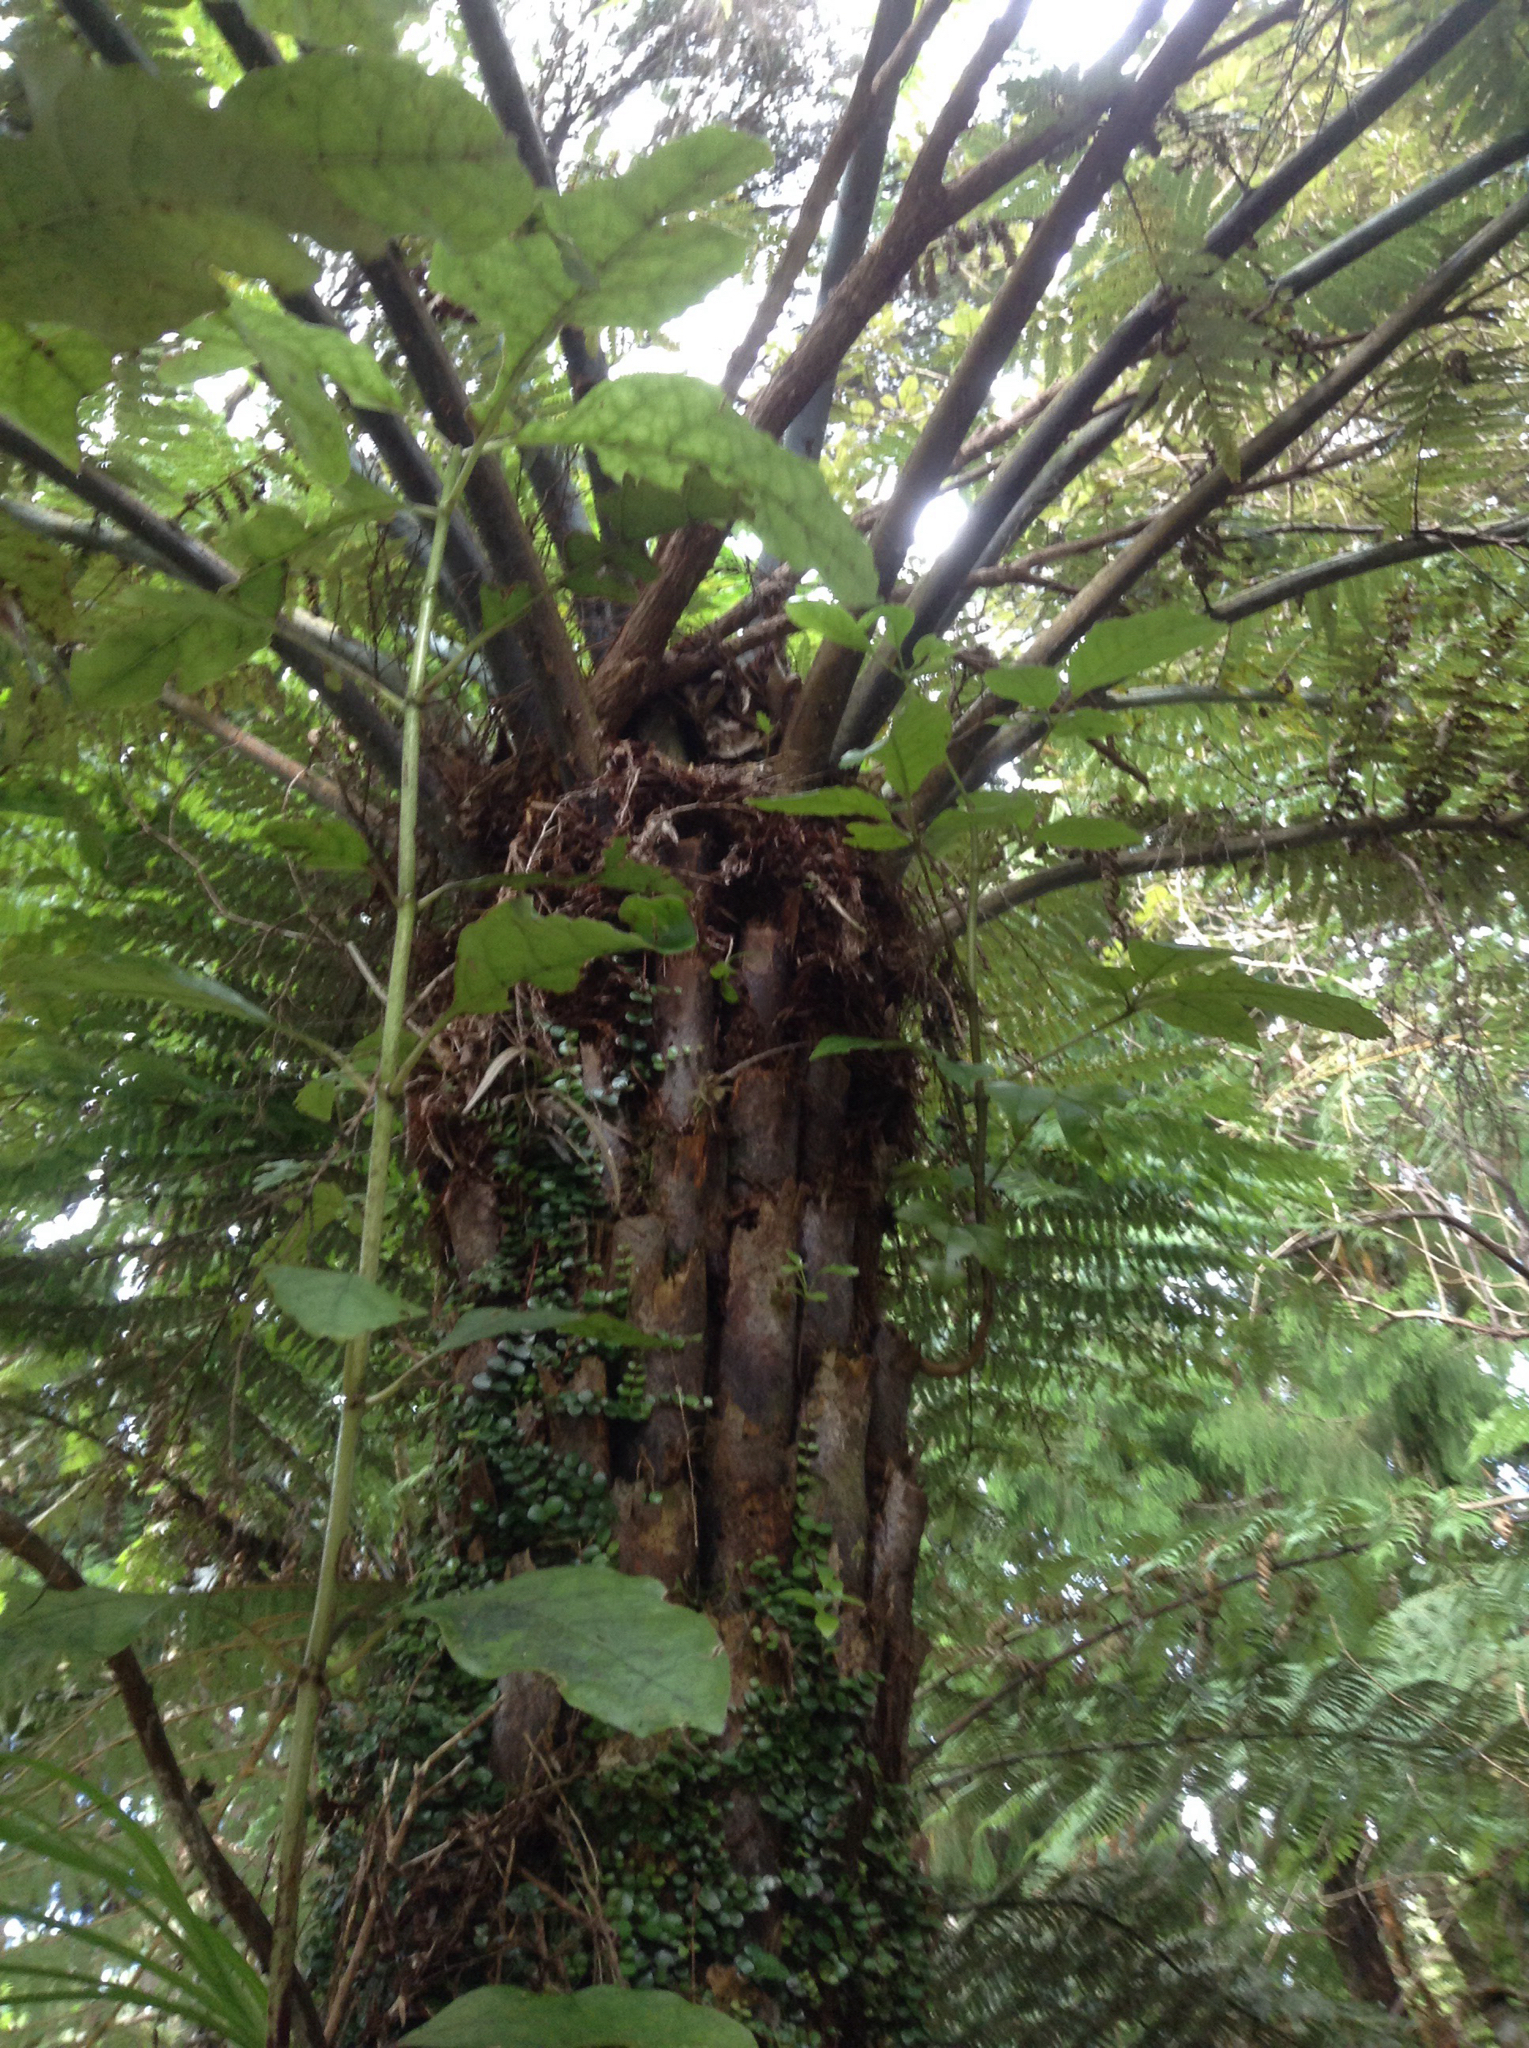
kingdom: Plantae
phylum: Tracheophyta
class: Polypodiopsida
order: Cyatheales
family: Cyatheaceae
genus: Alsophila
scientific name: Alsophila dealbata
